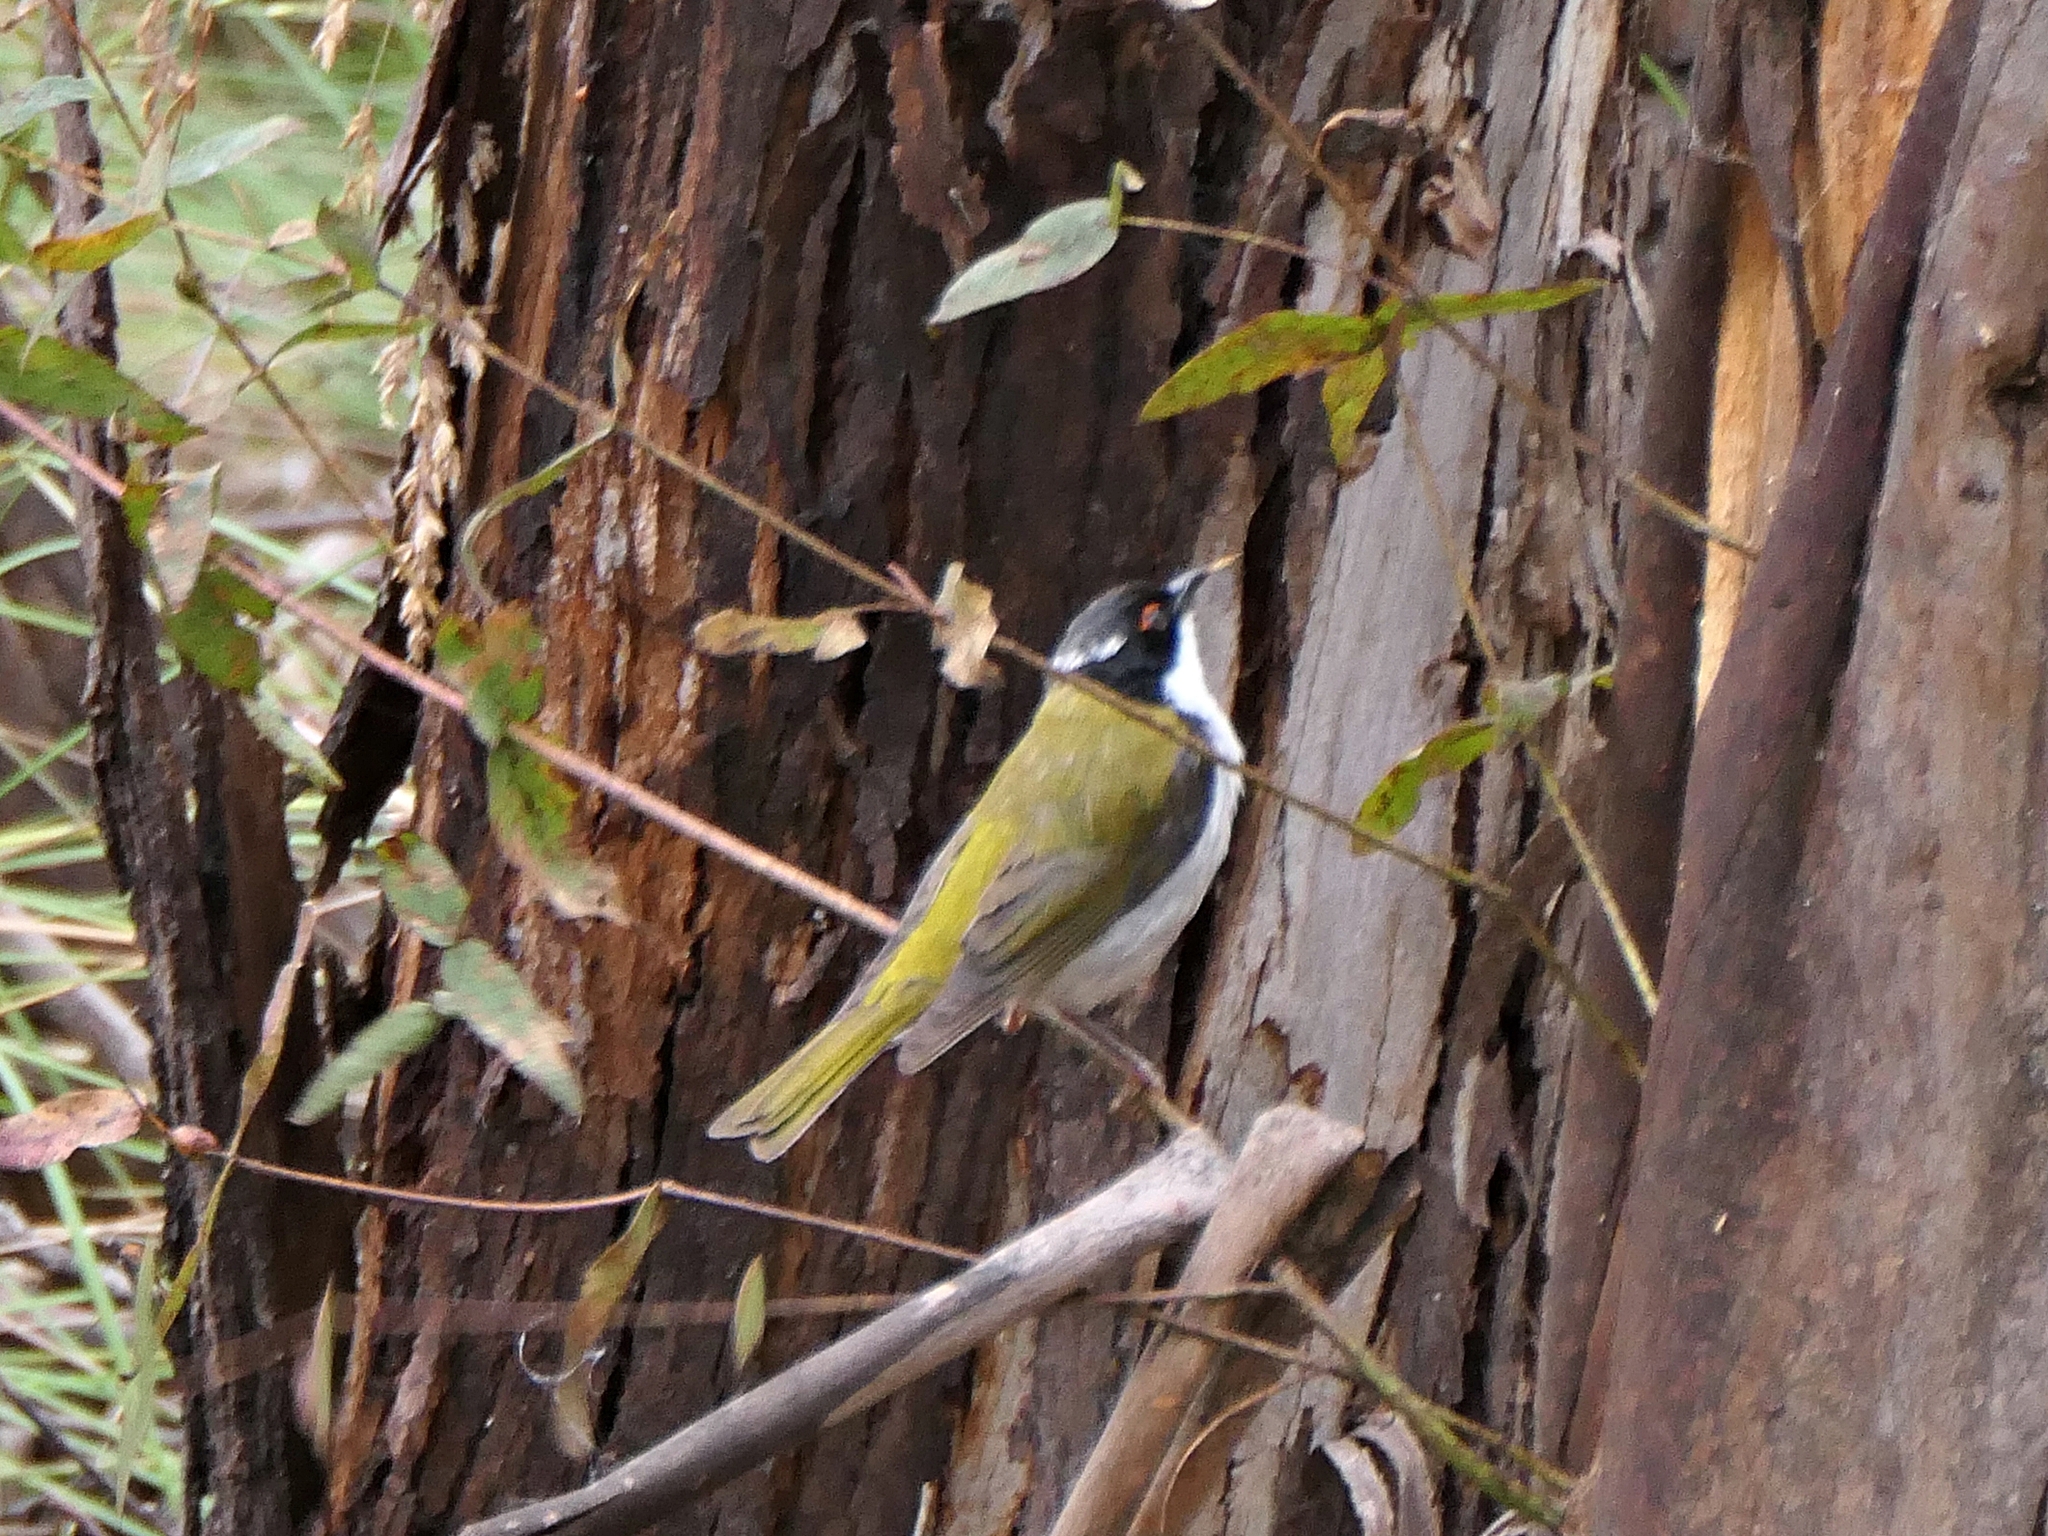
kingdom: Animalia
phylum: Chordata
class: Aves
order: Passeriformes
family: Meliphagidae
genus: Melithreptus
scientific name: Melithreptus lunatus
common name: White-naped honeyeater
